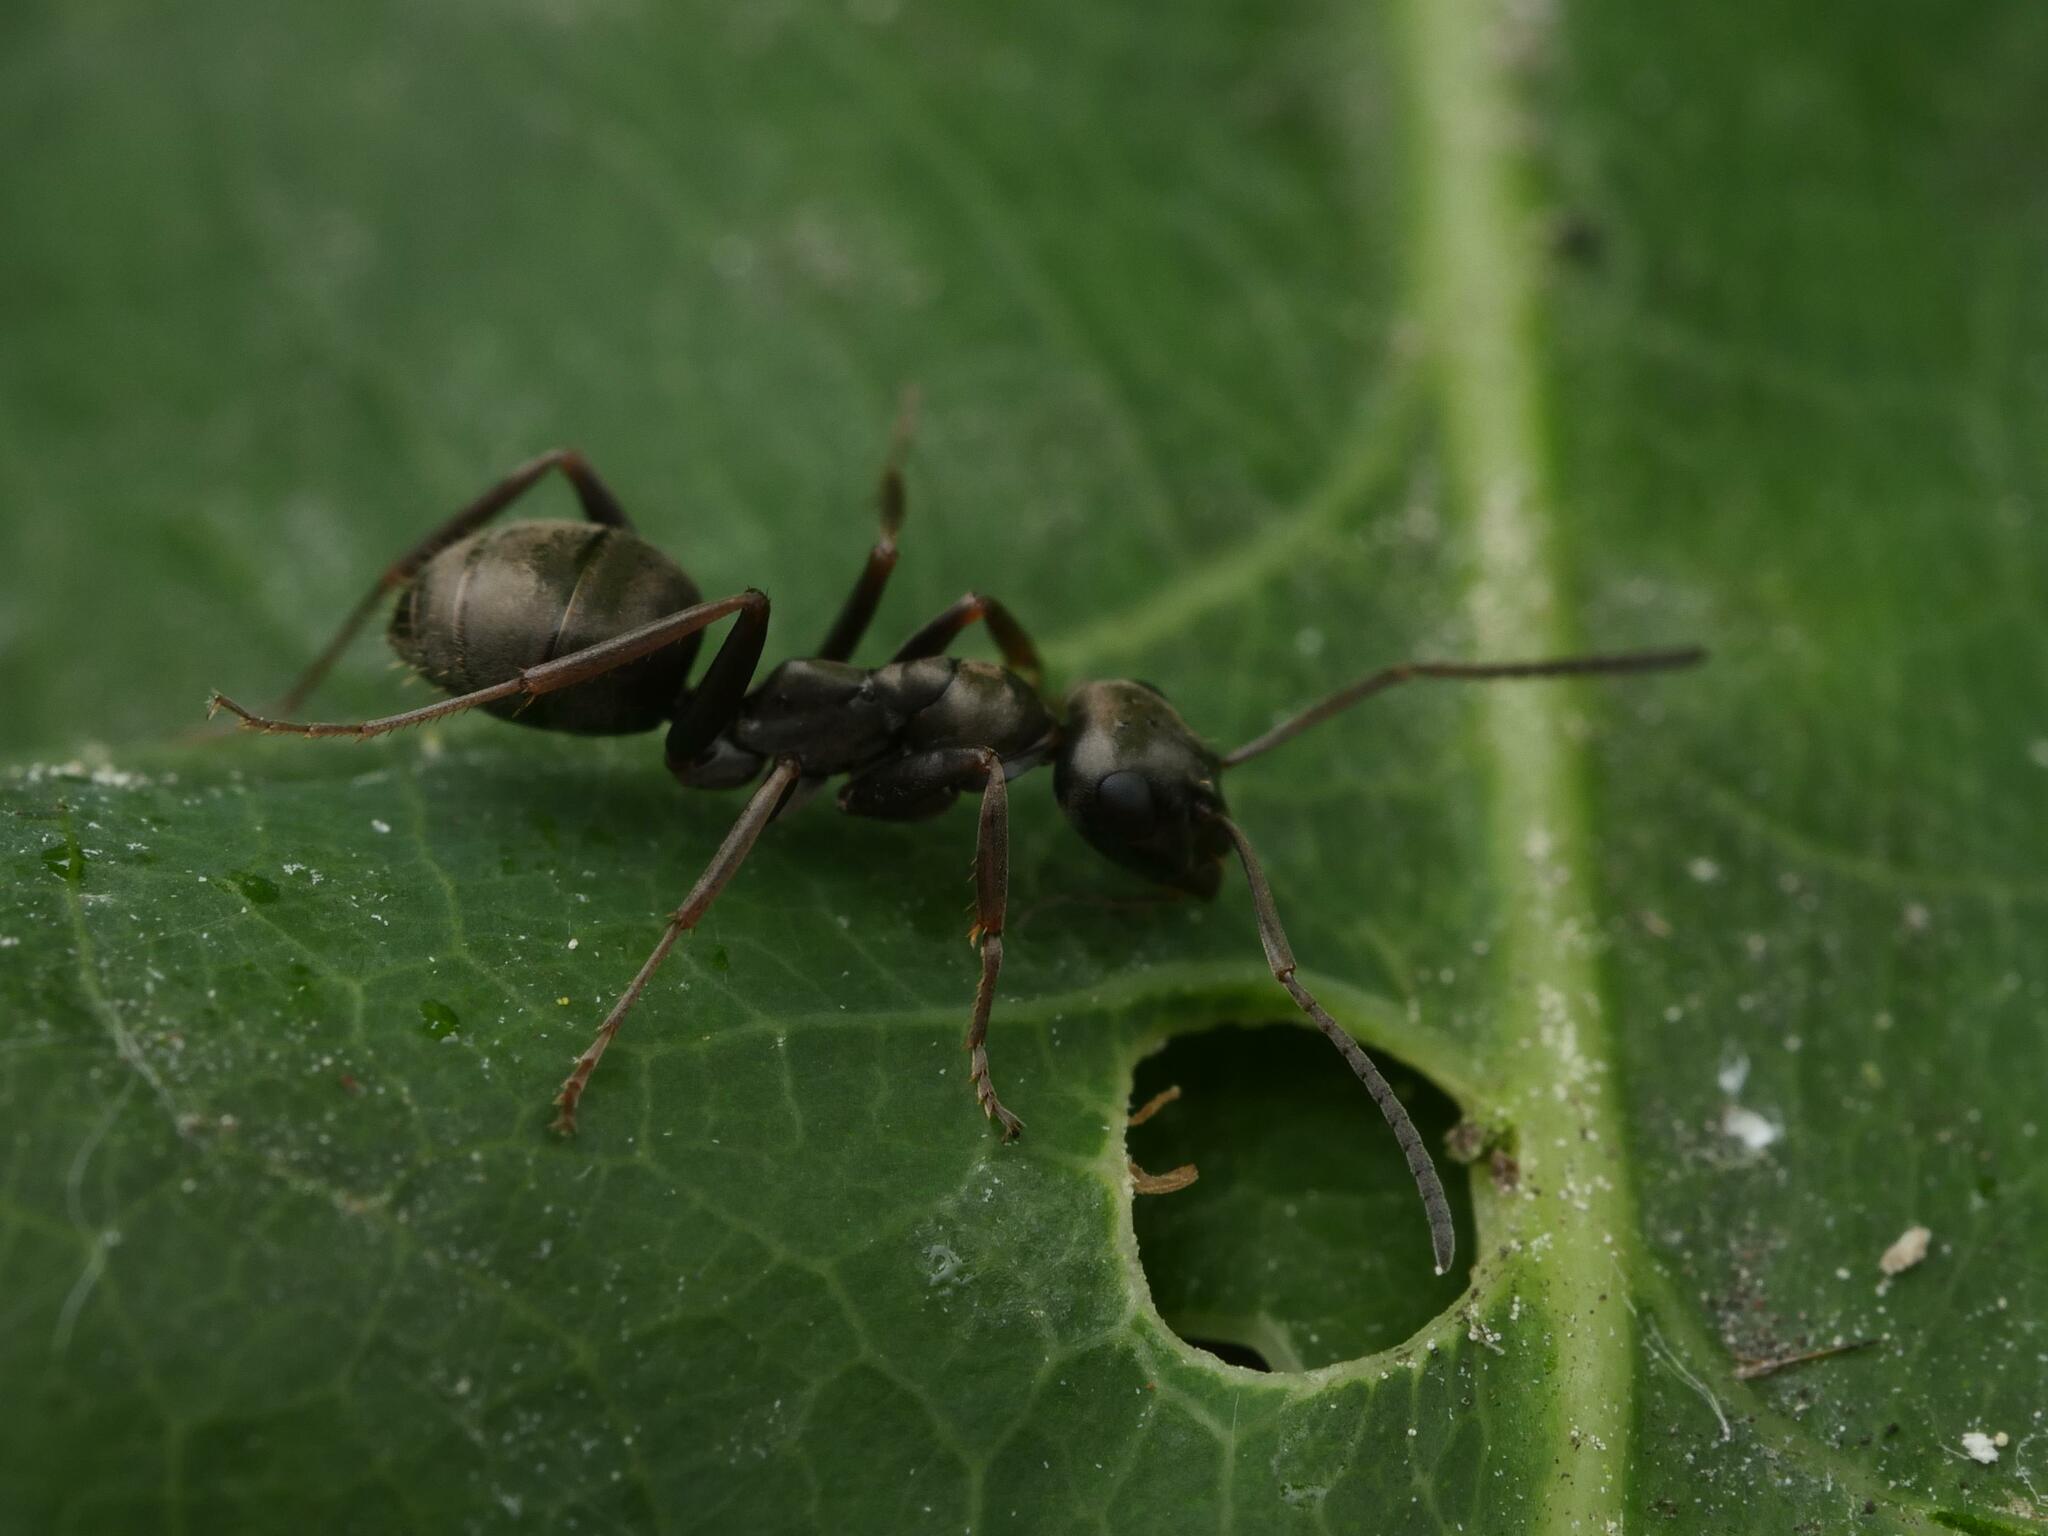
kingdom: Animalia
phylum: Arthropoda
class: Insecta
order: Hymenoptera
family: Formicidae
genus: Formica
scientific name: Formica fusca
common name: Silky ant
